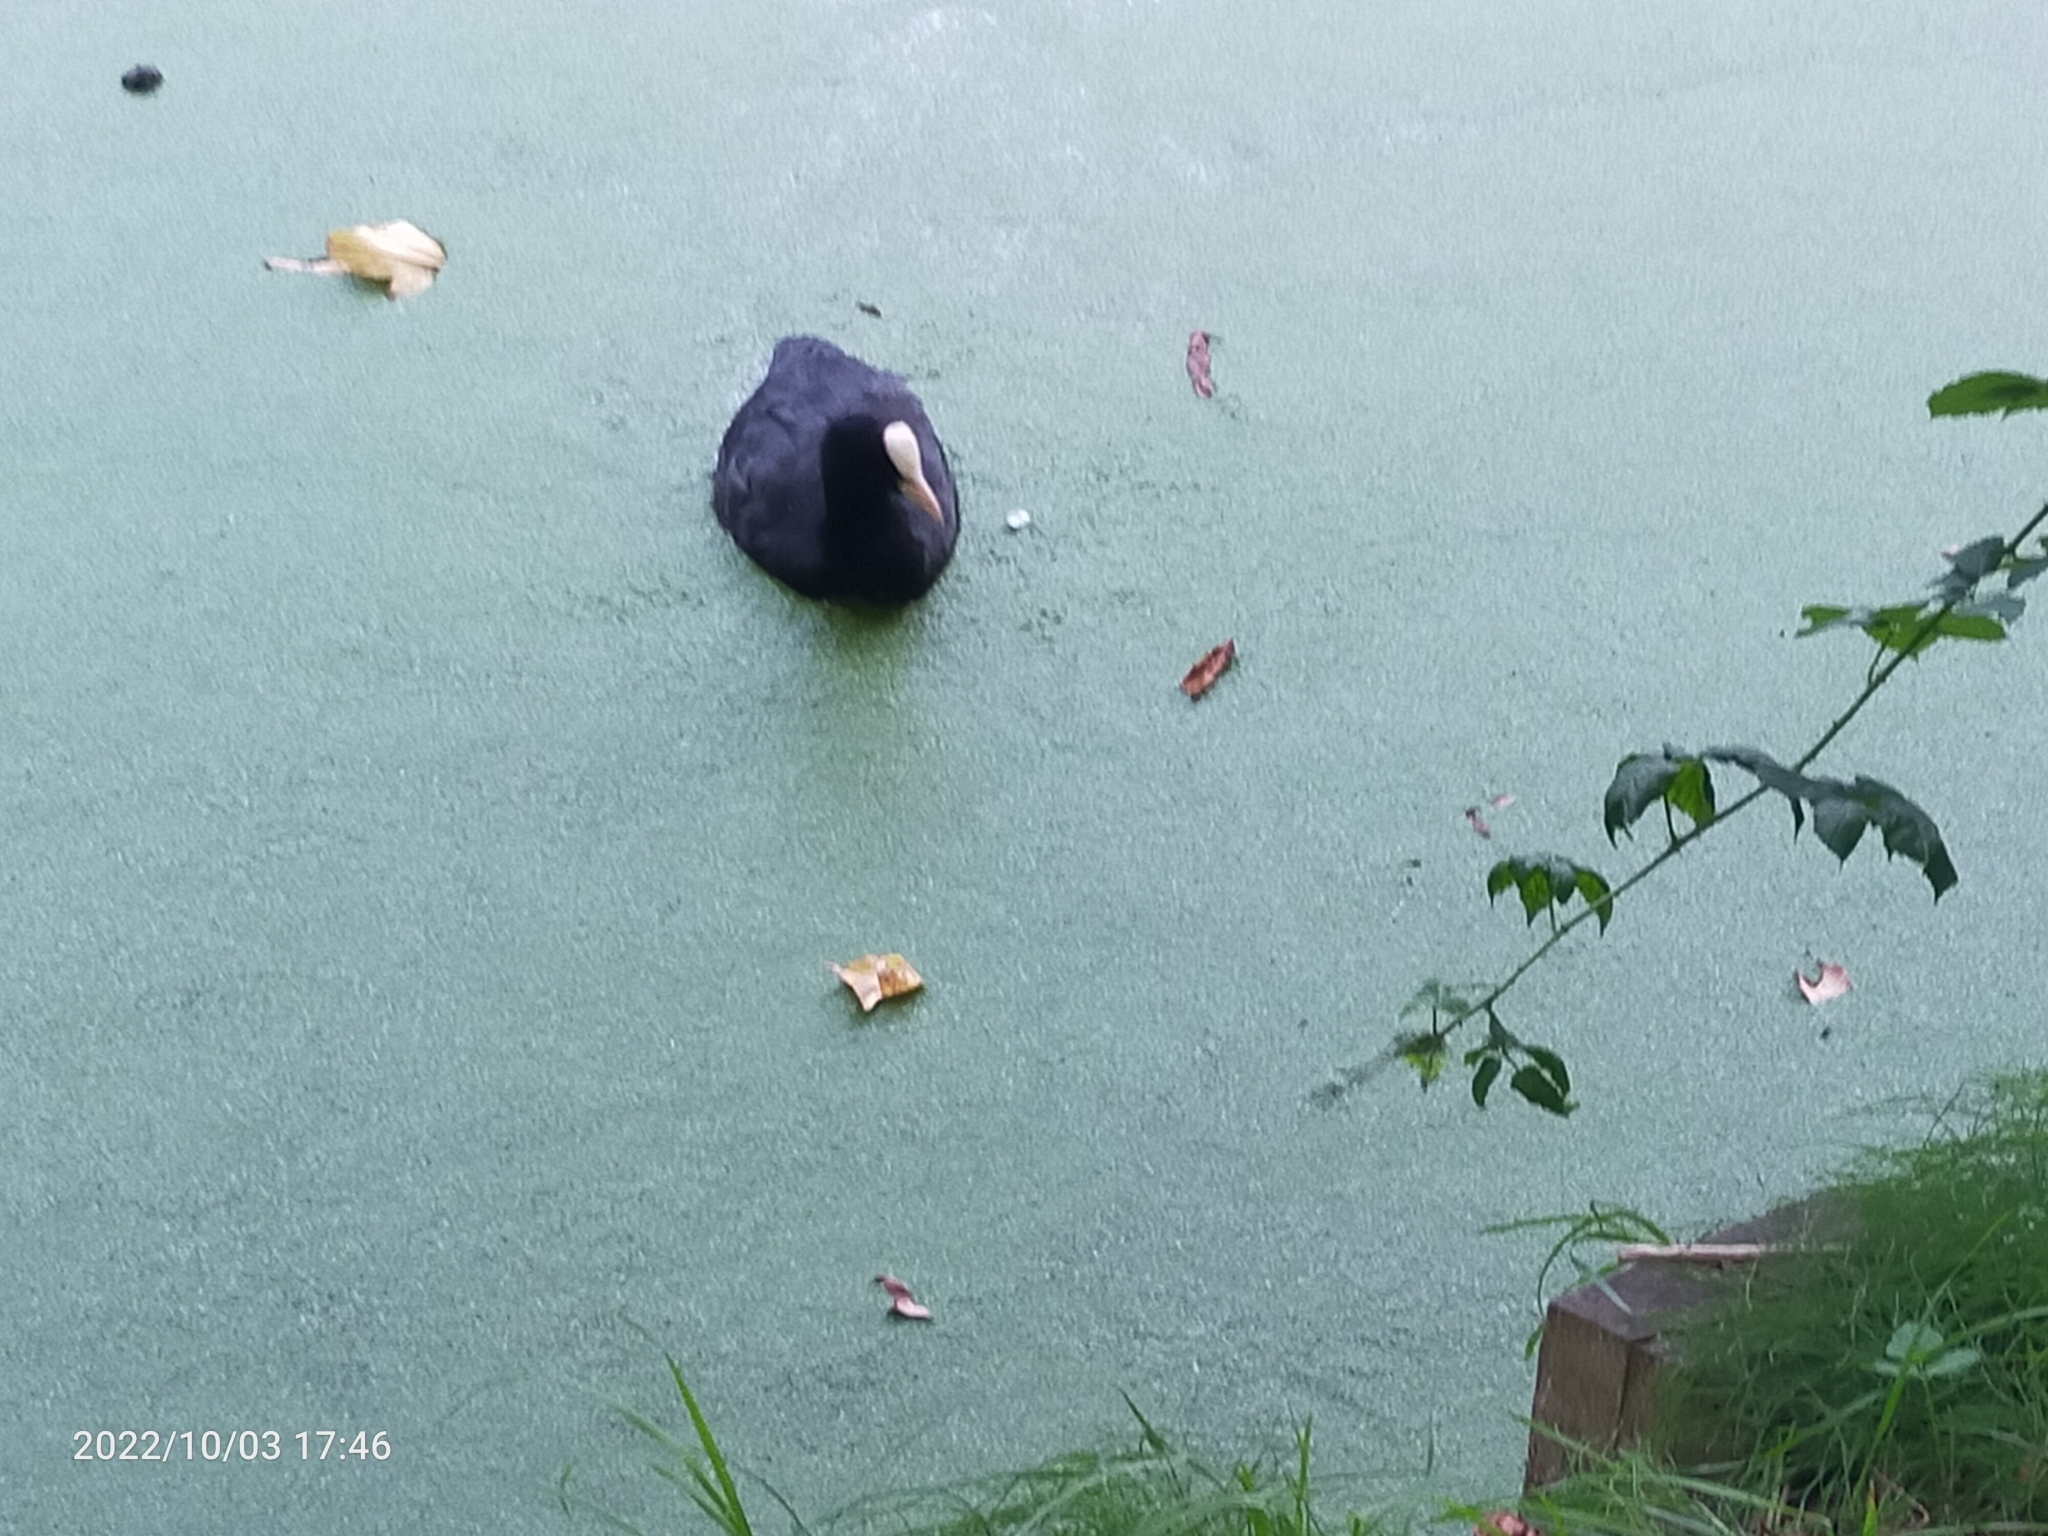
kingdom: Animalia
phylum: Chordata
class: Aves
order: Gruiformes
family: Rallidae
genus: Fulica
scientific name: Fulica atra
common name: Eurasian coot
